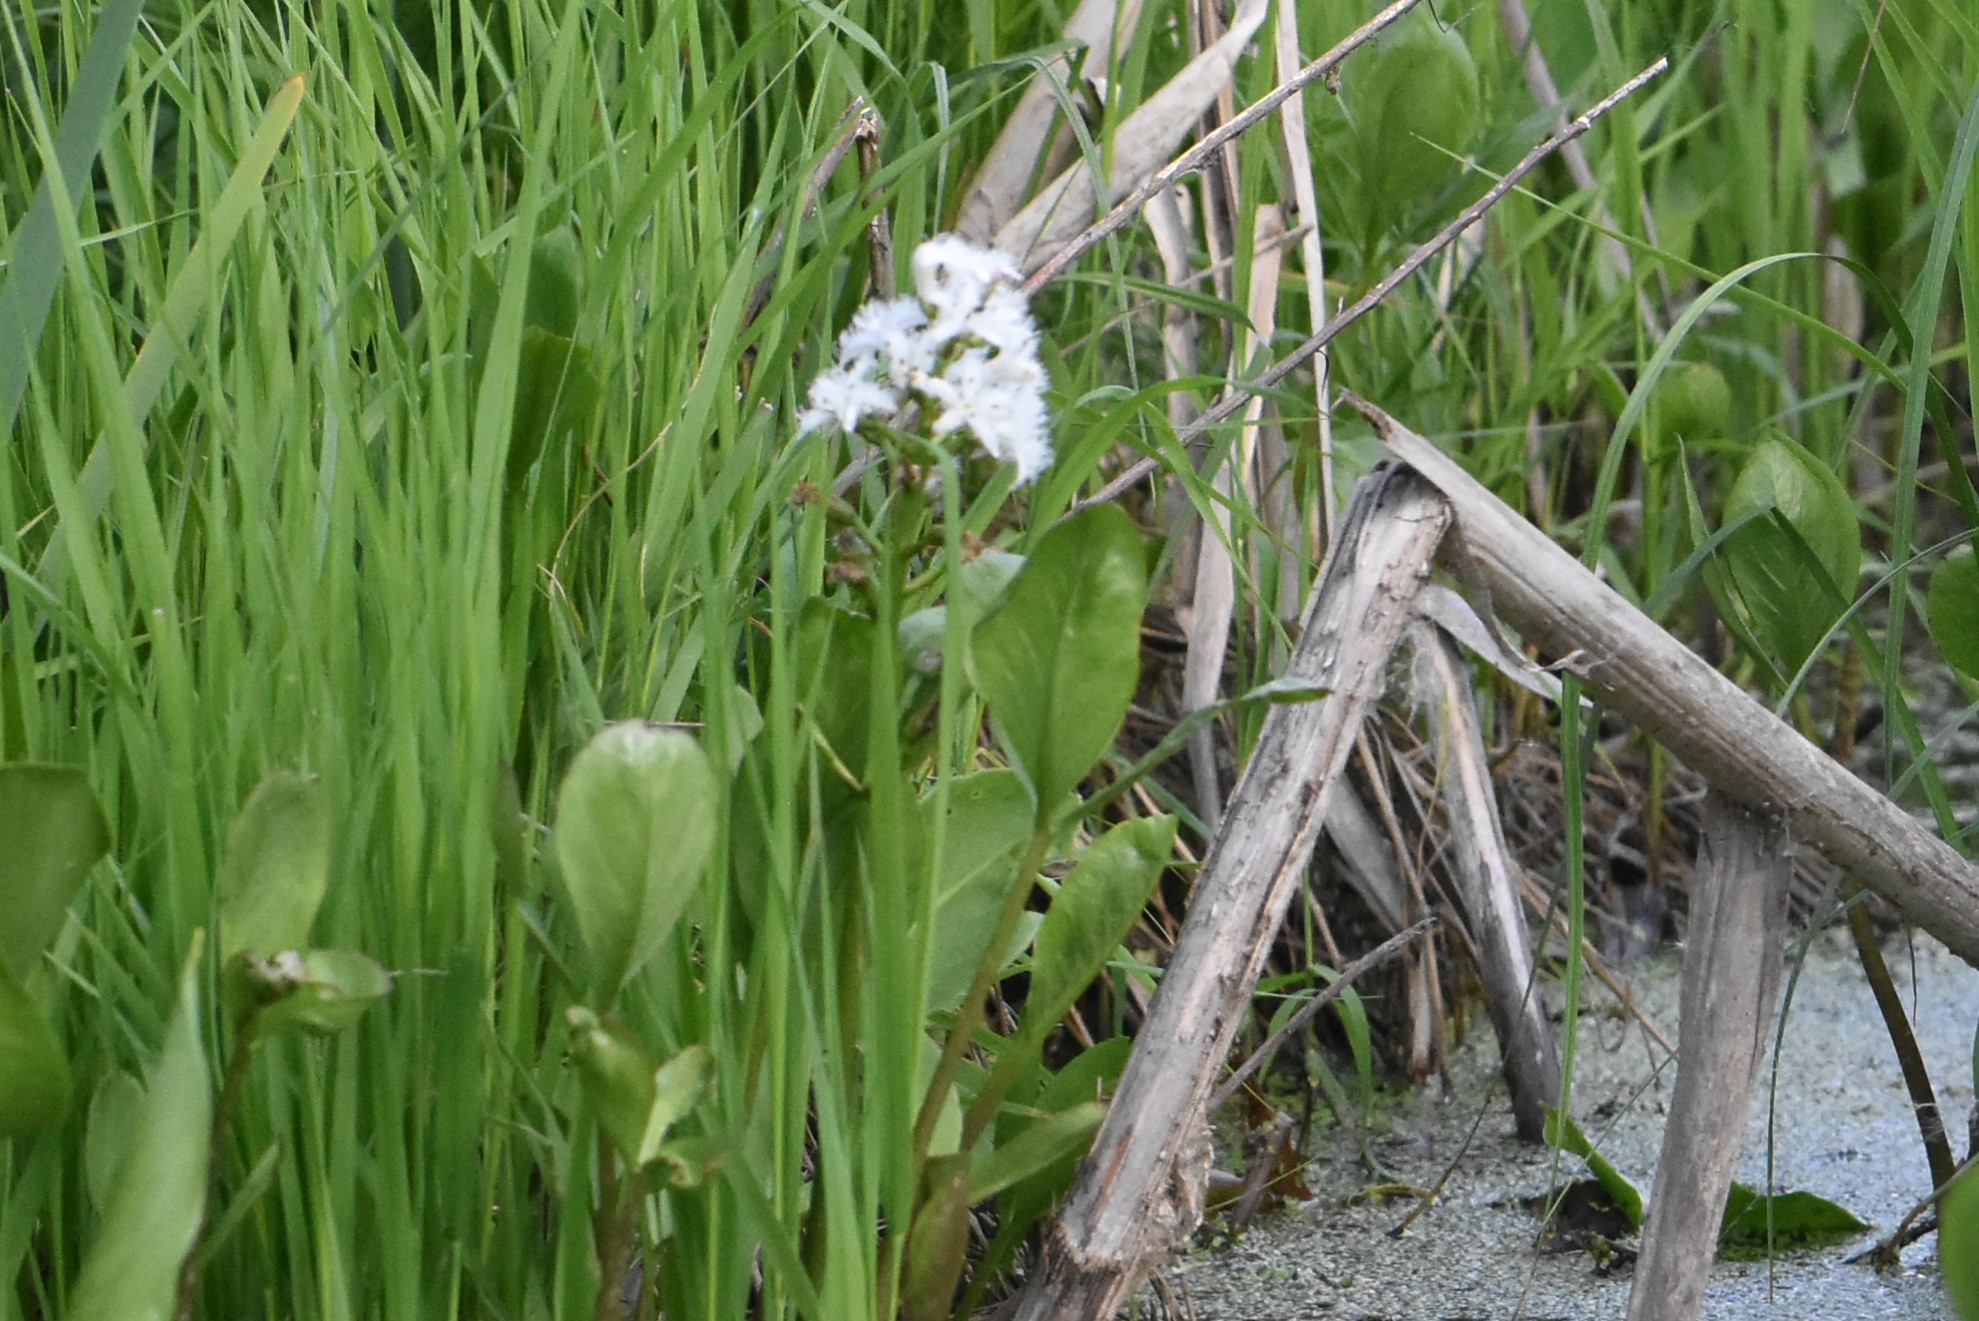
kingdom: Plantae
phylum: Tracheophyta
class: Magnoliopsida
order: Asterales
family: Menyanthaceae
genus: Menyanthes
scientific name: Menyanthes trifoliata
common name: Bogbean
